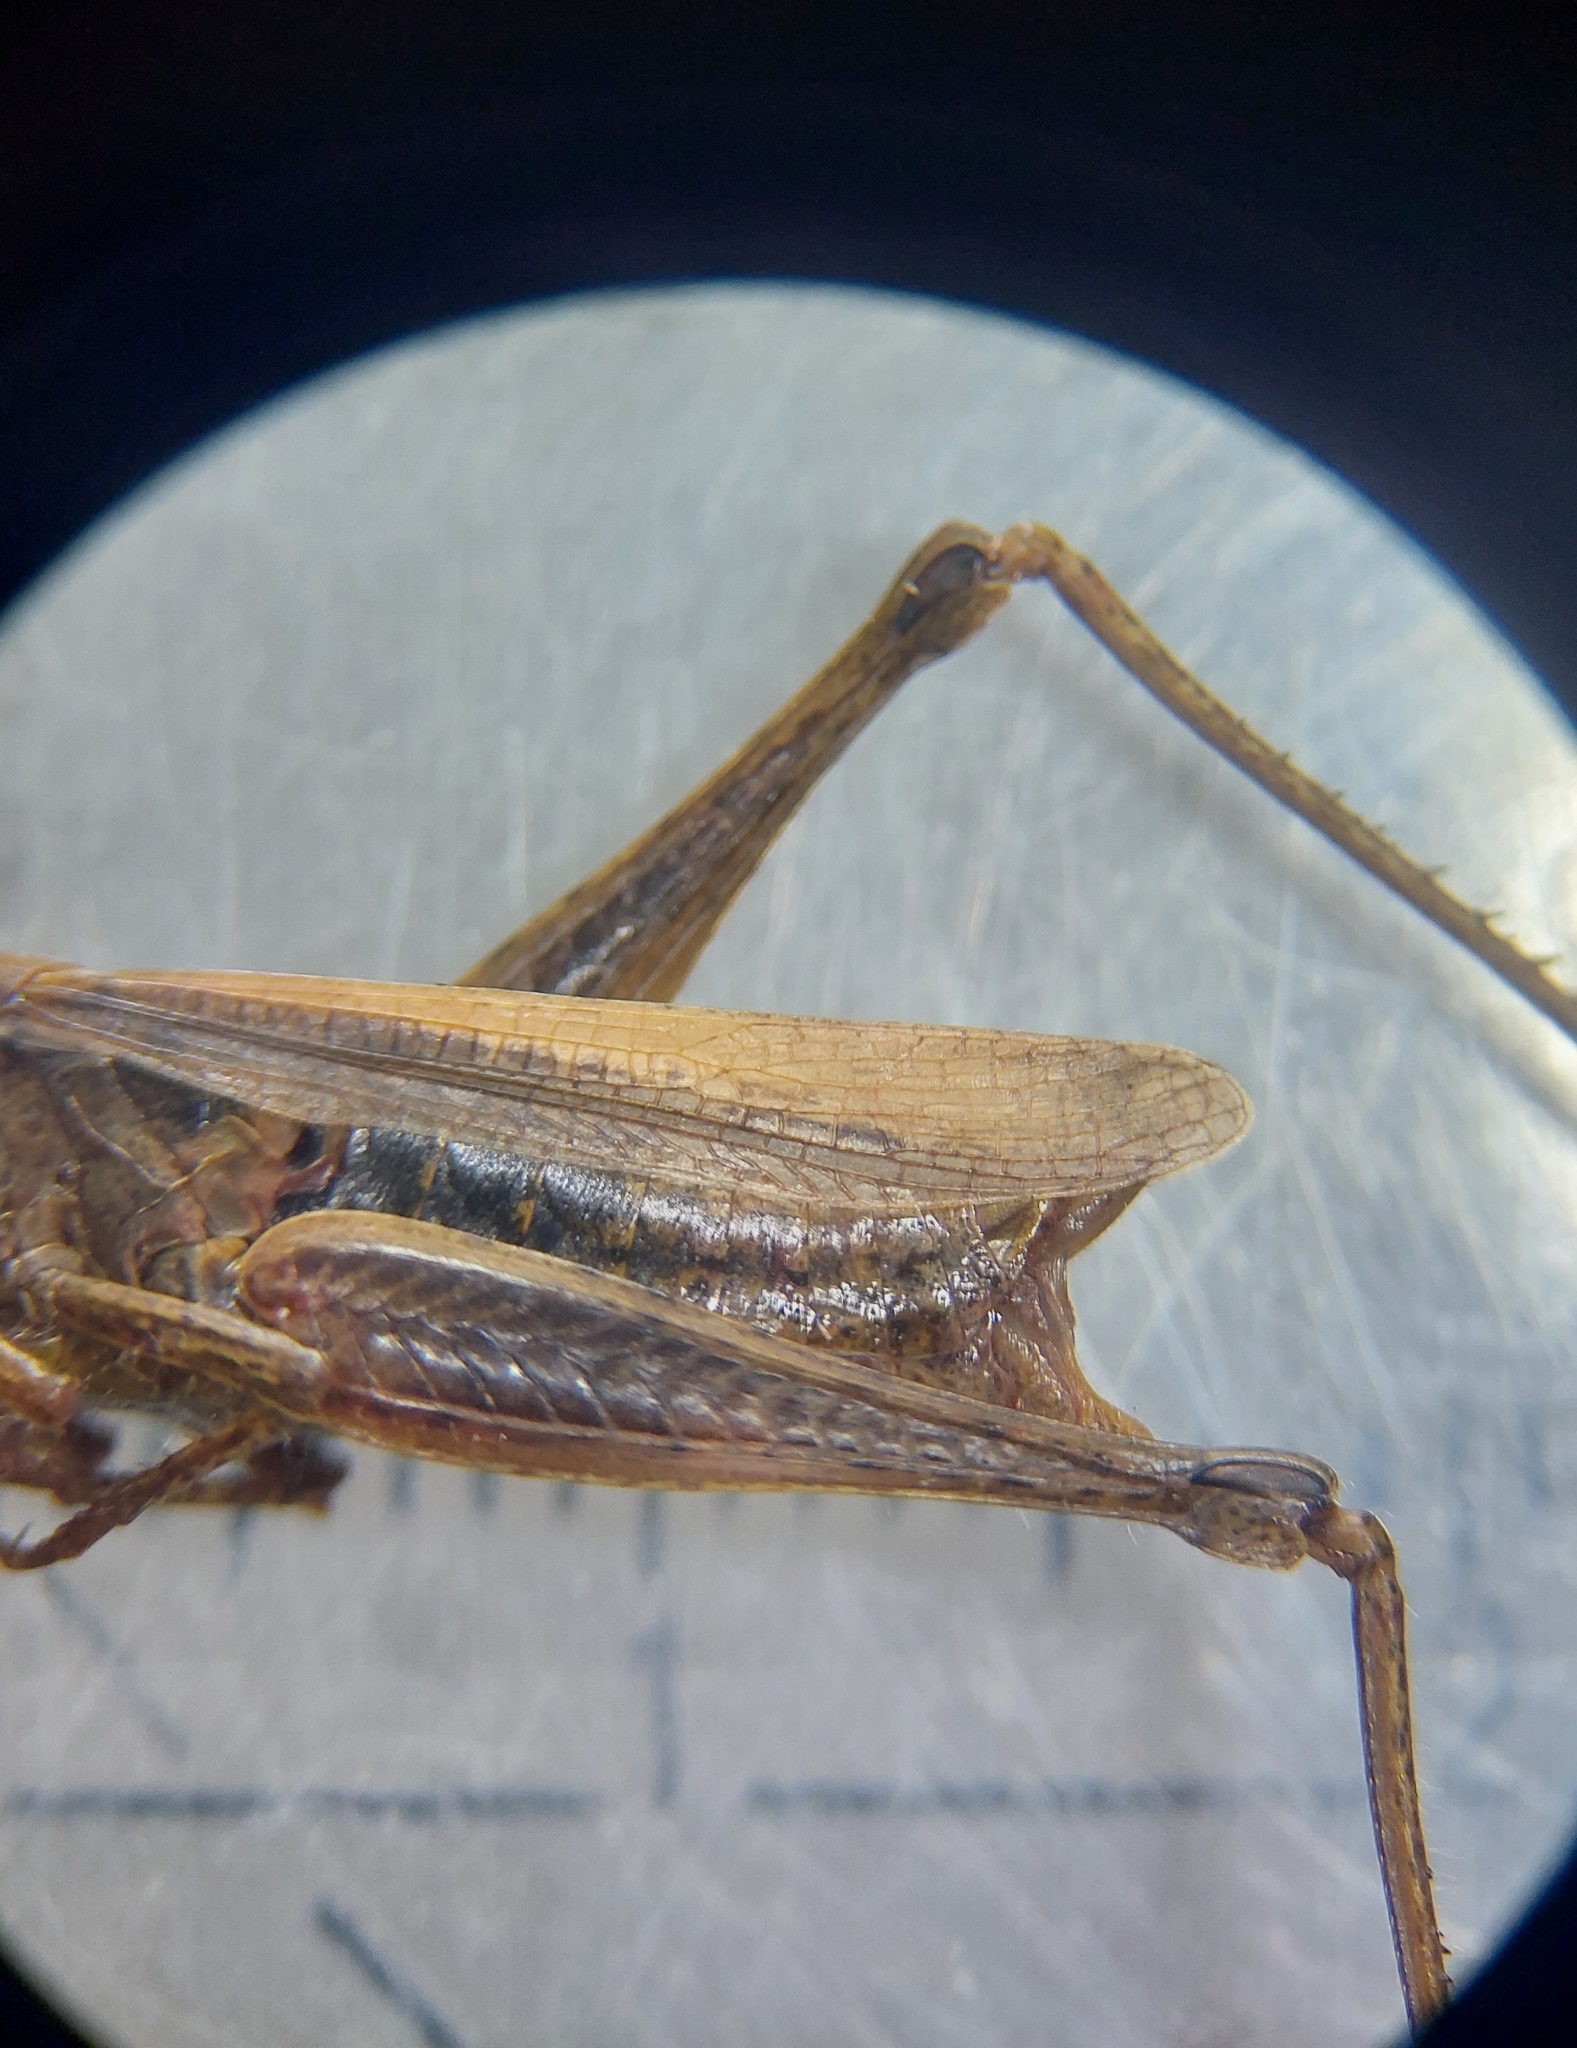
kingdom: Animalia
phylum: Arthropoda
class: Insecta
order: Orthoptera
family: Acrididae
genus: Chorthippus
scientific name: Chorthippus dorsatus
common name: Steppe grasshopper
